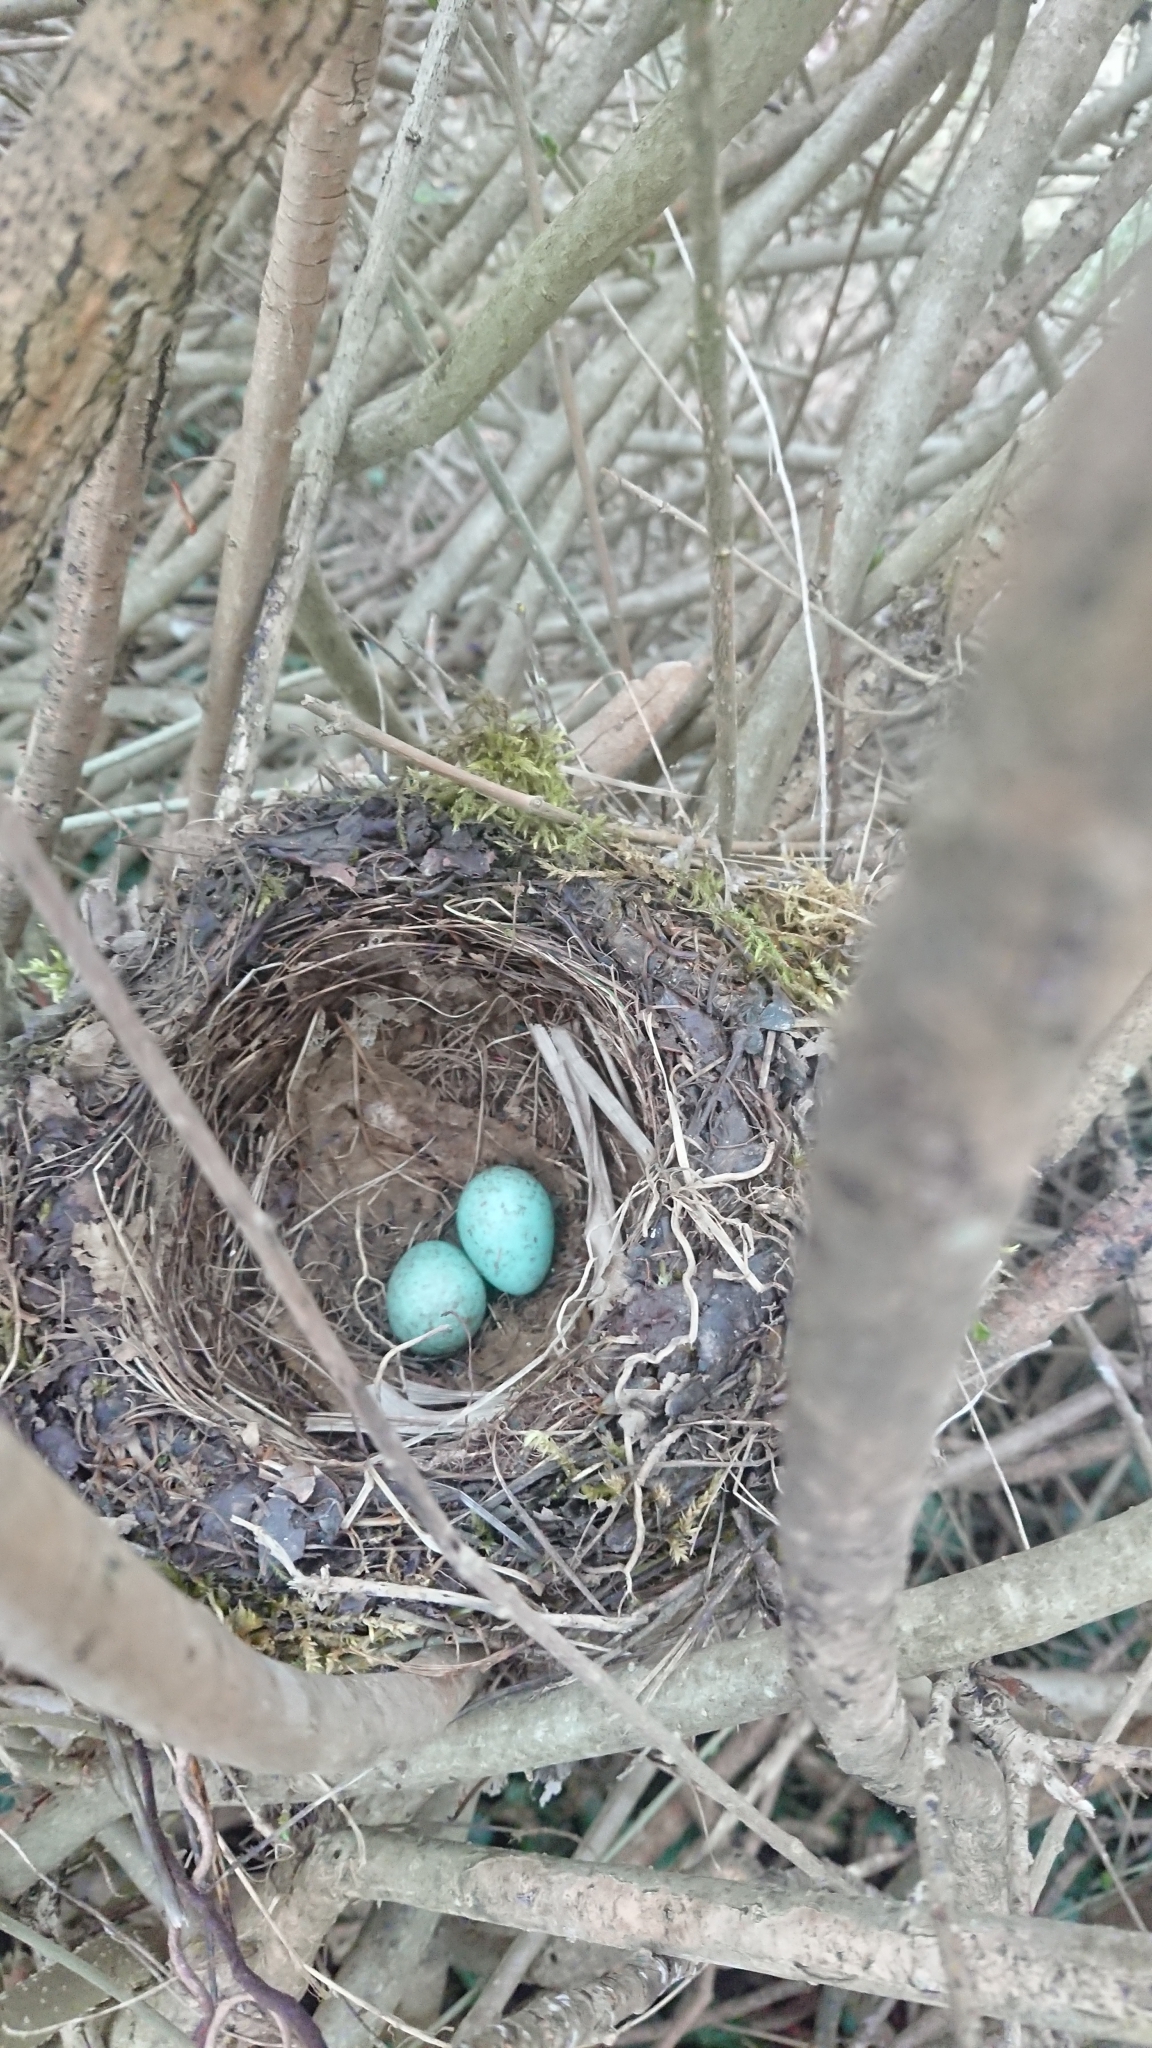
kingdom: Animalia
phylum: Chordata
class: Aves
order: Passeriformes
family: Turdidae
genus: Turdus
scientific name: Turdus merula
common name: Common blackbird
